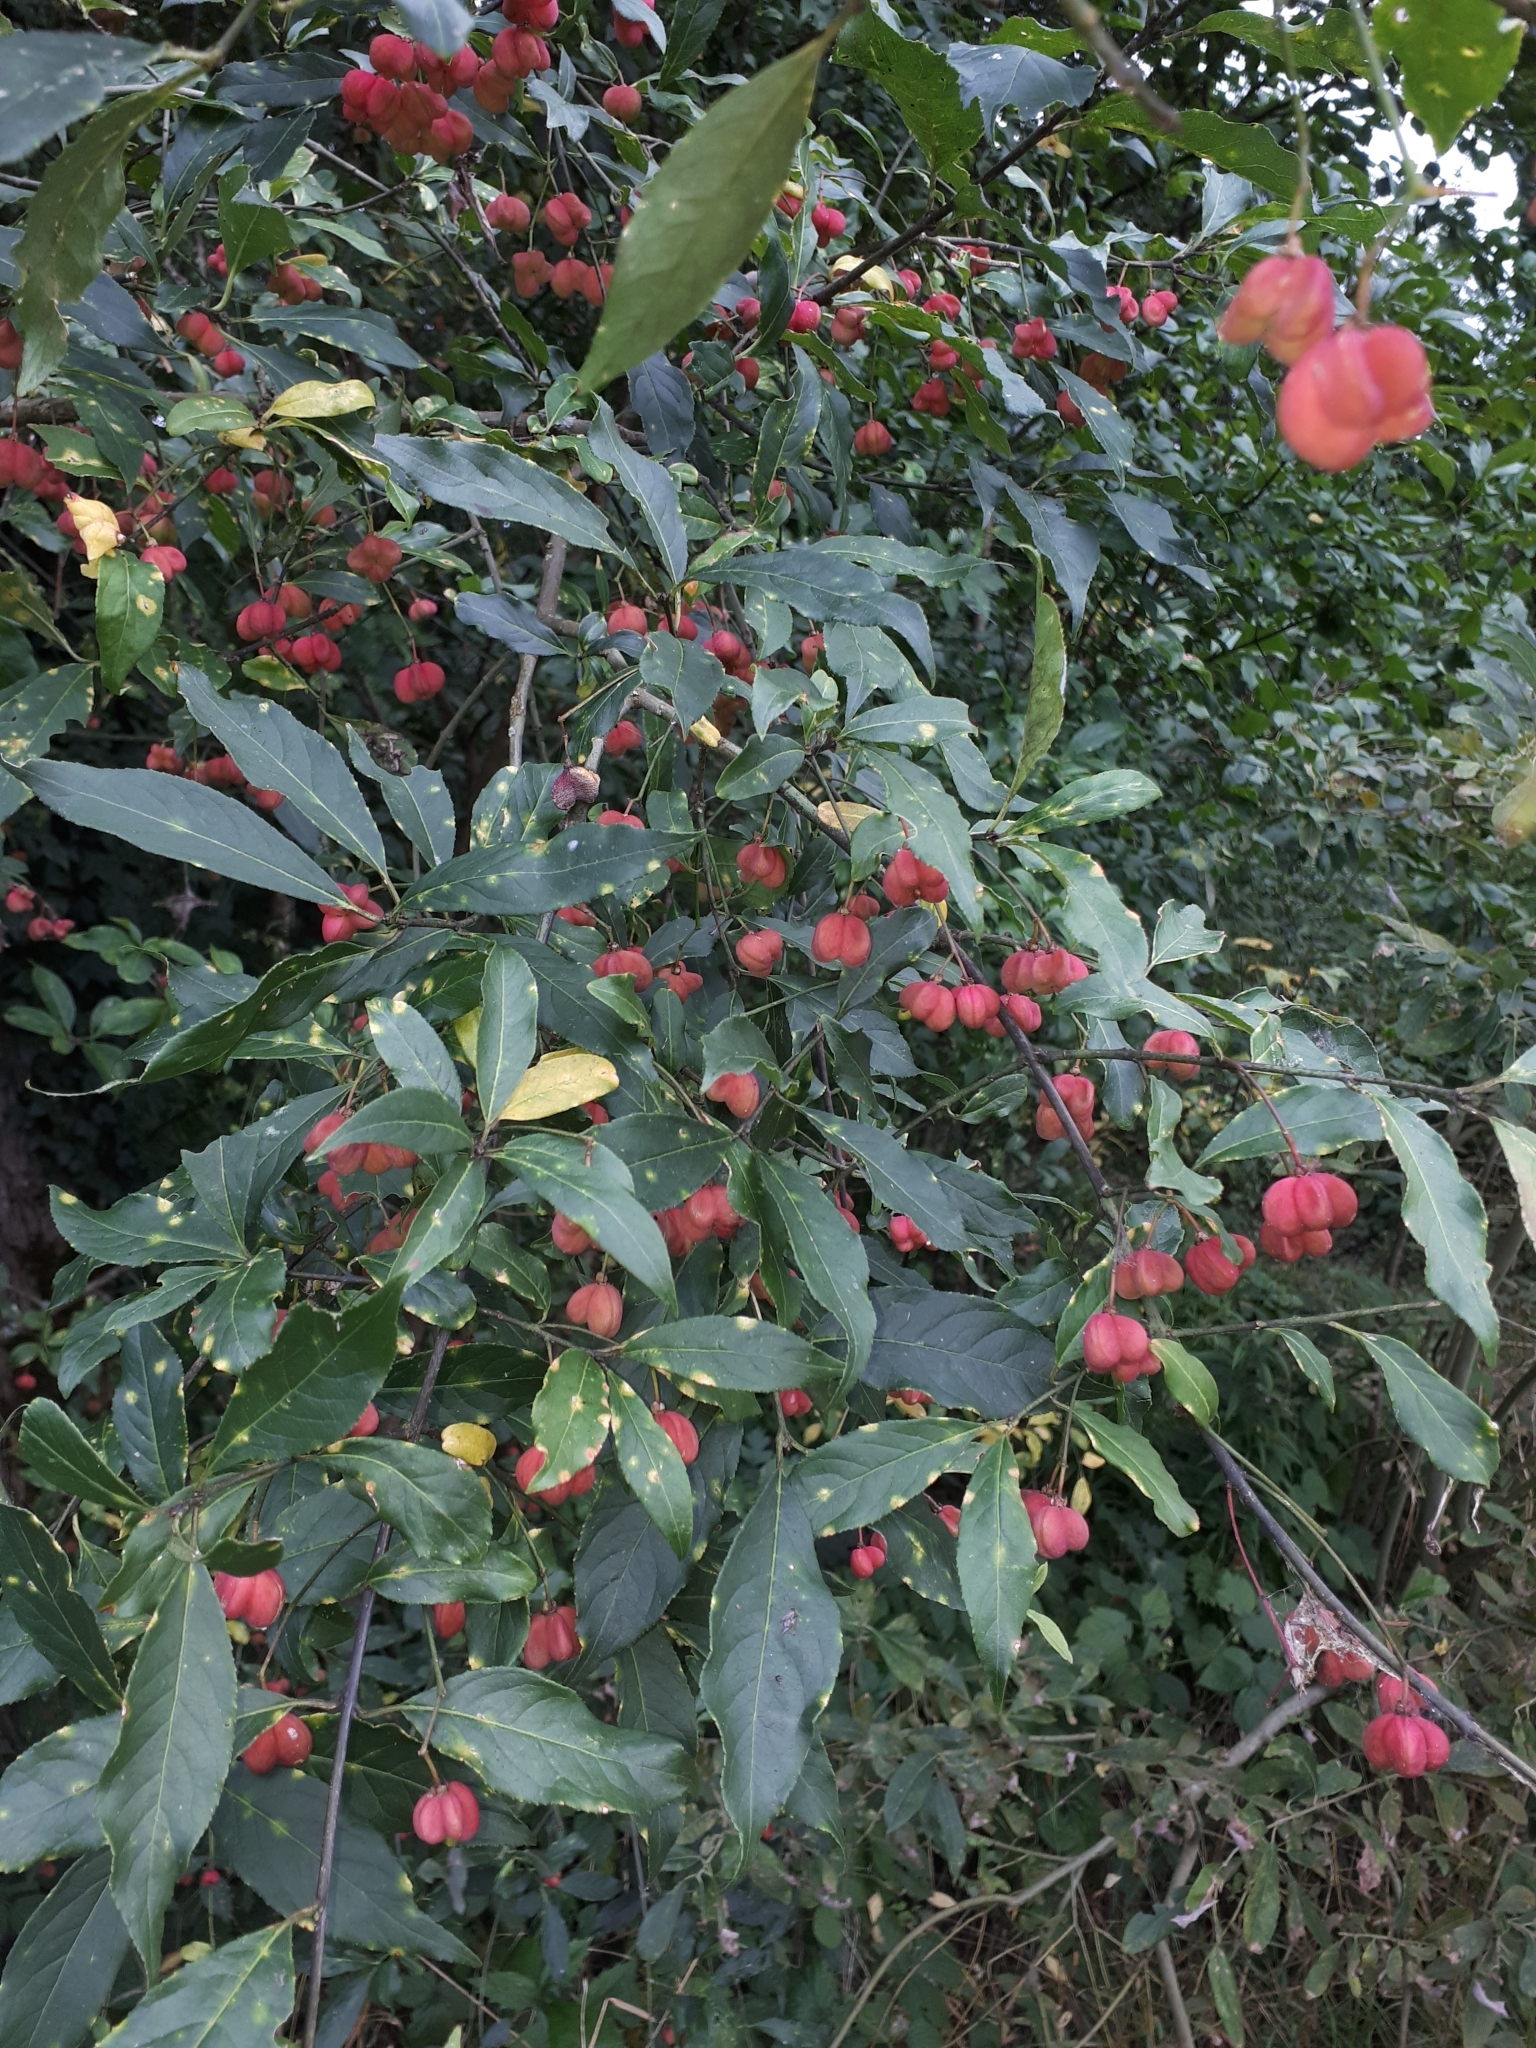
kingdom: Plantae
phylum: Tracheophyta
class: Magnoliopsida
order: Celastrales
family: Celastraceae
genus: Euonymus
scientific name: Euonymus europaeus
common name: Spindle
